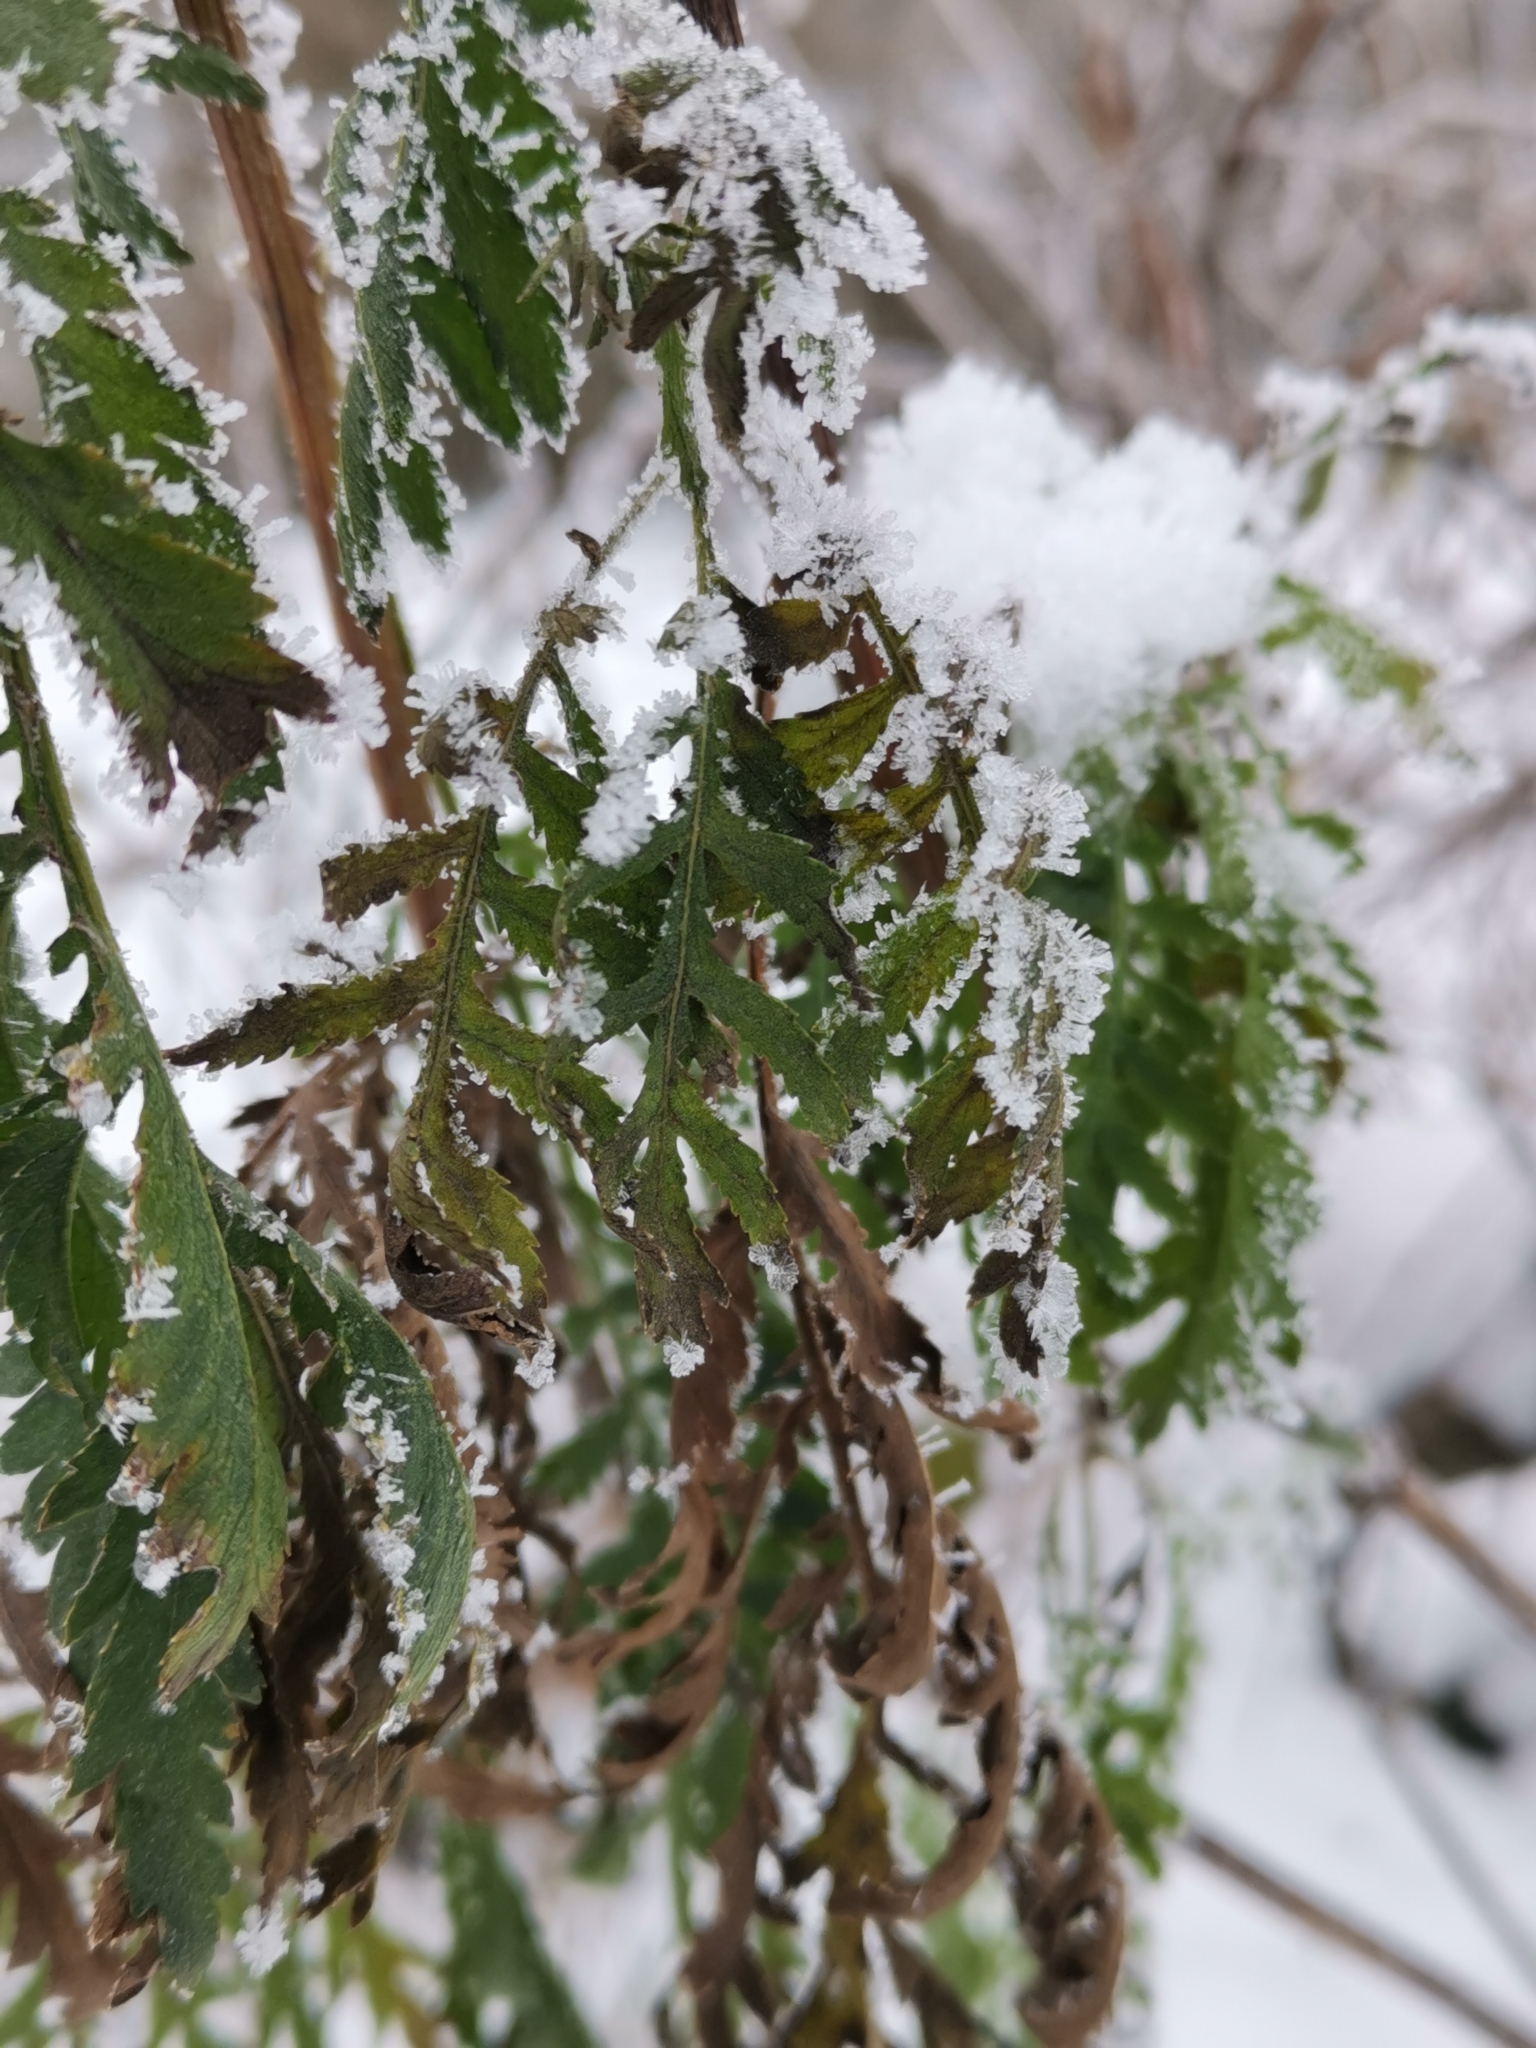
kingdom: Plantae
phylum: Tracheophyta
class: Magnoliopsida
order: Asterales
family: Asteraceae
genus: Tanacetum
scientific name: Tanacetum vulgare
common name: Common tansy
